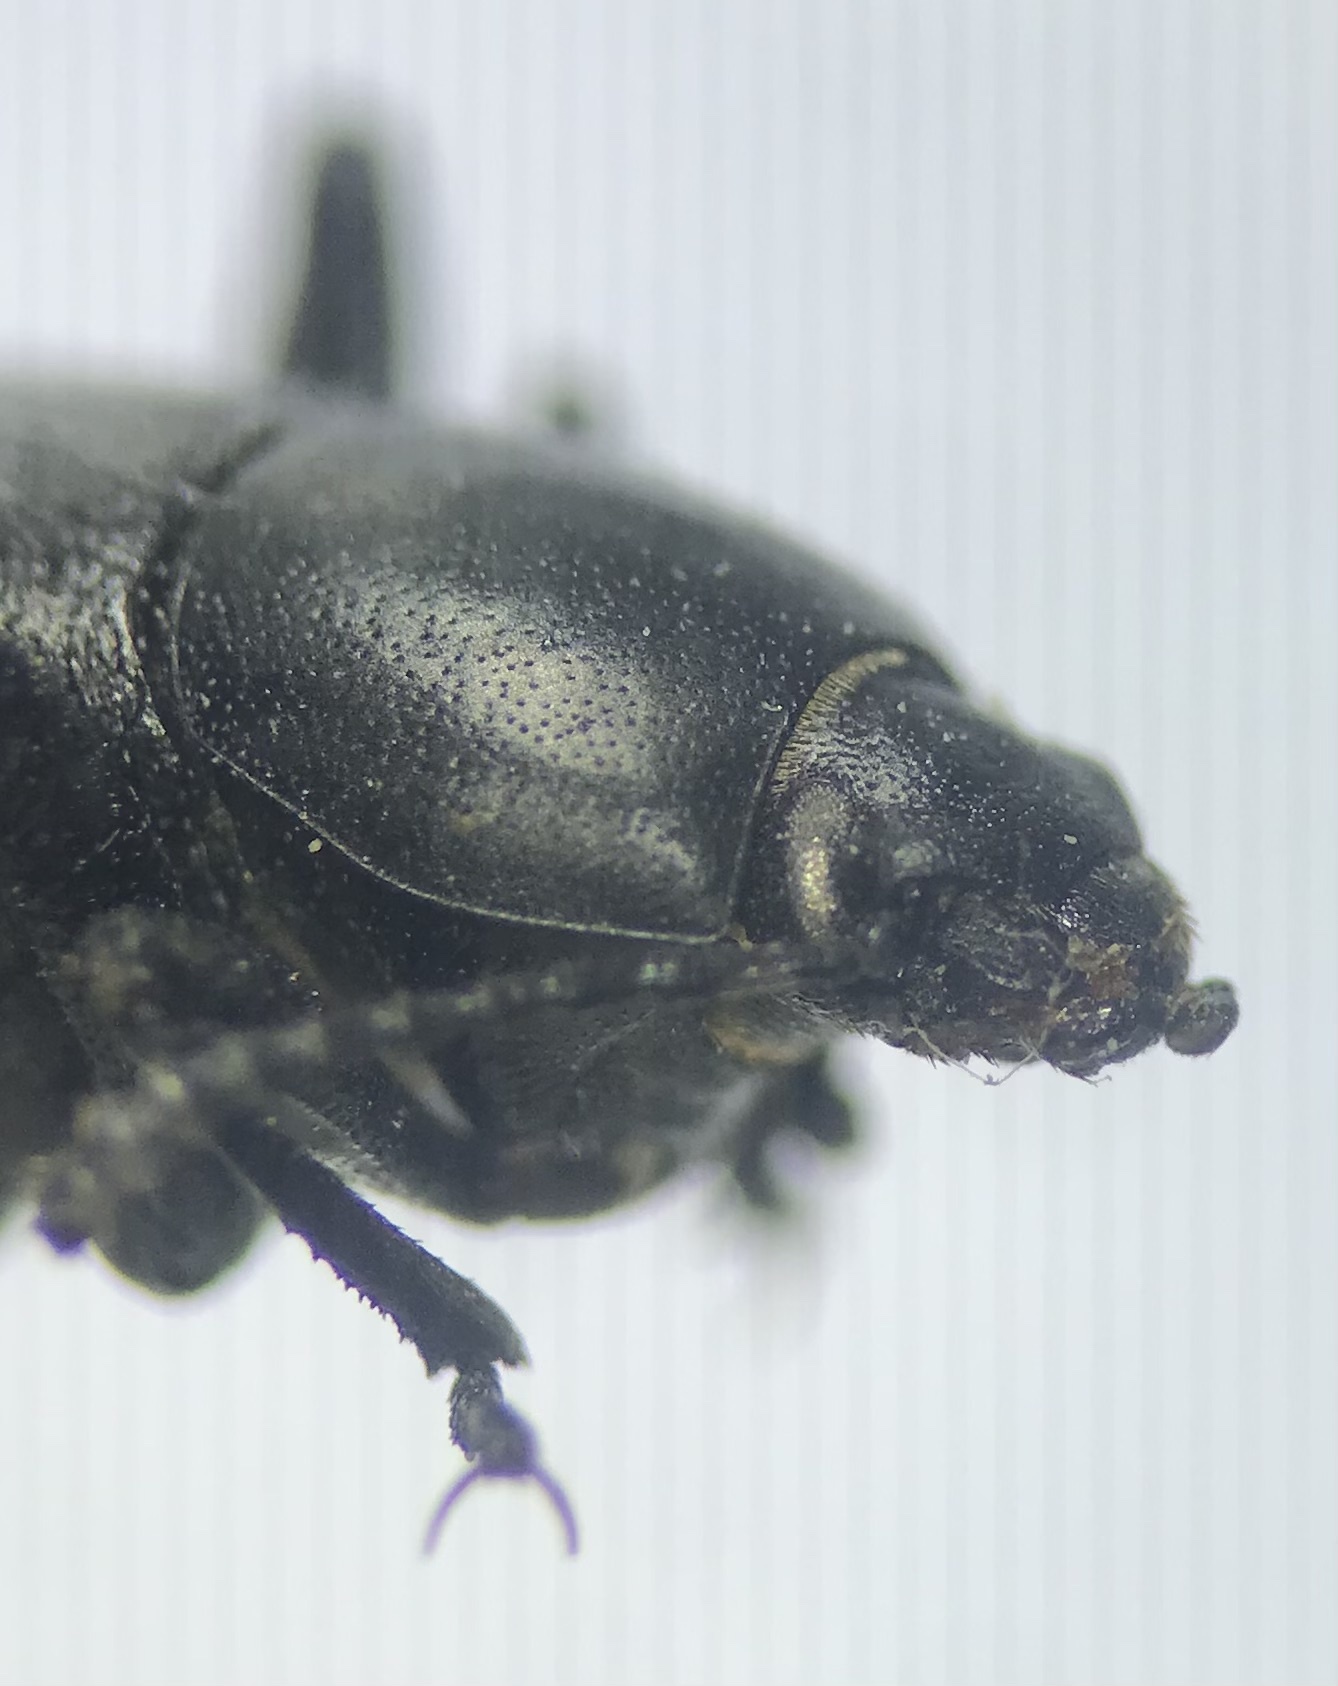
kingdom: Animalia
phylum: Arthropoda
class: Insecta
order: Coleoptera
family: Tenebrionidae
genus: Eleodes
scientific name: Eleodes extricata
